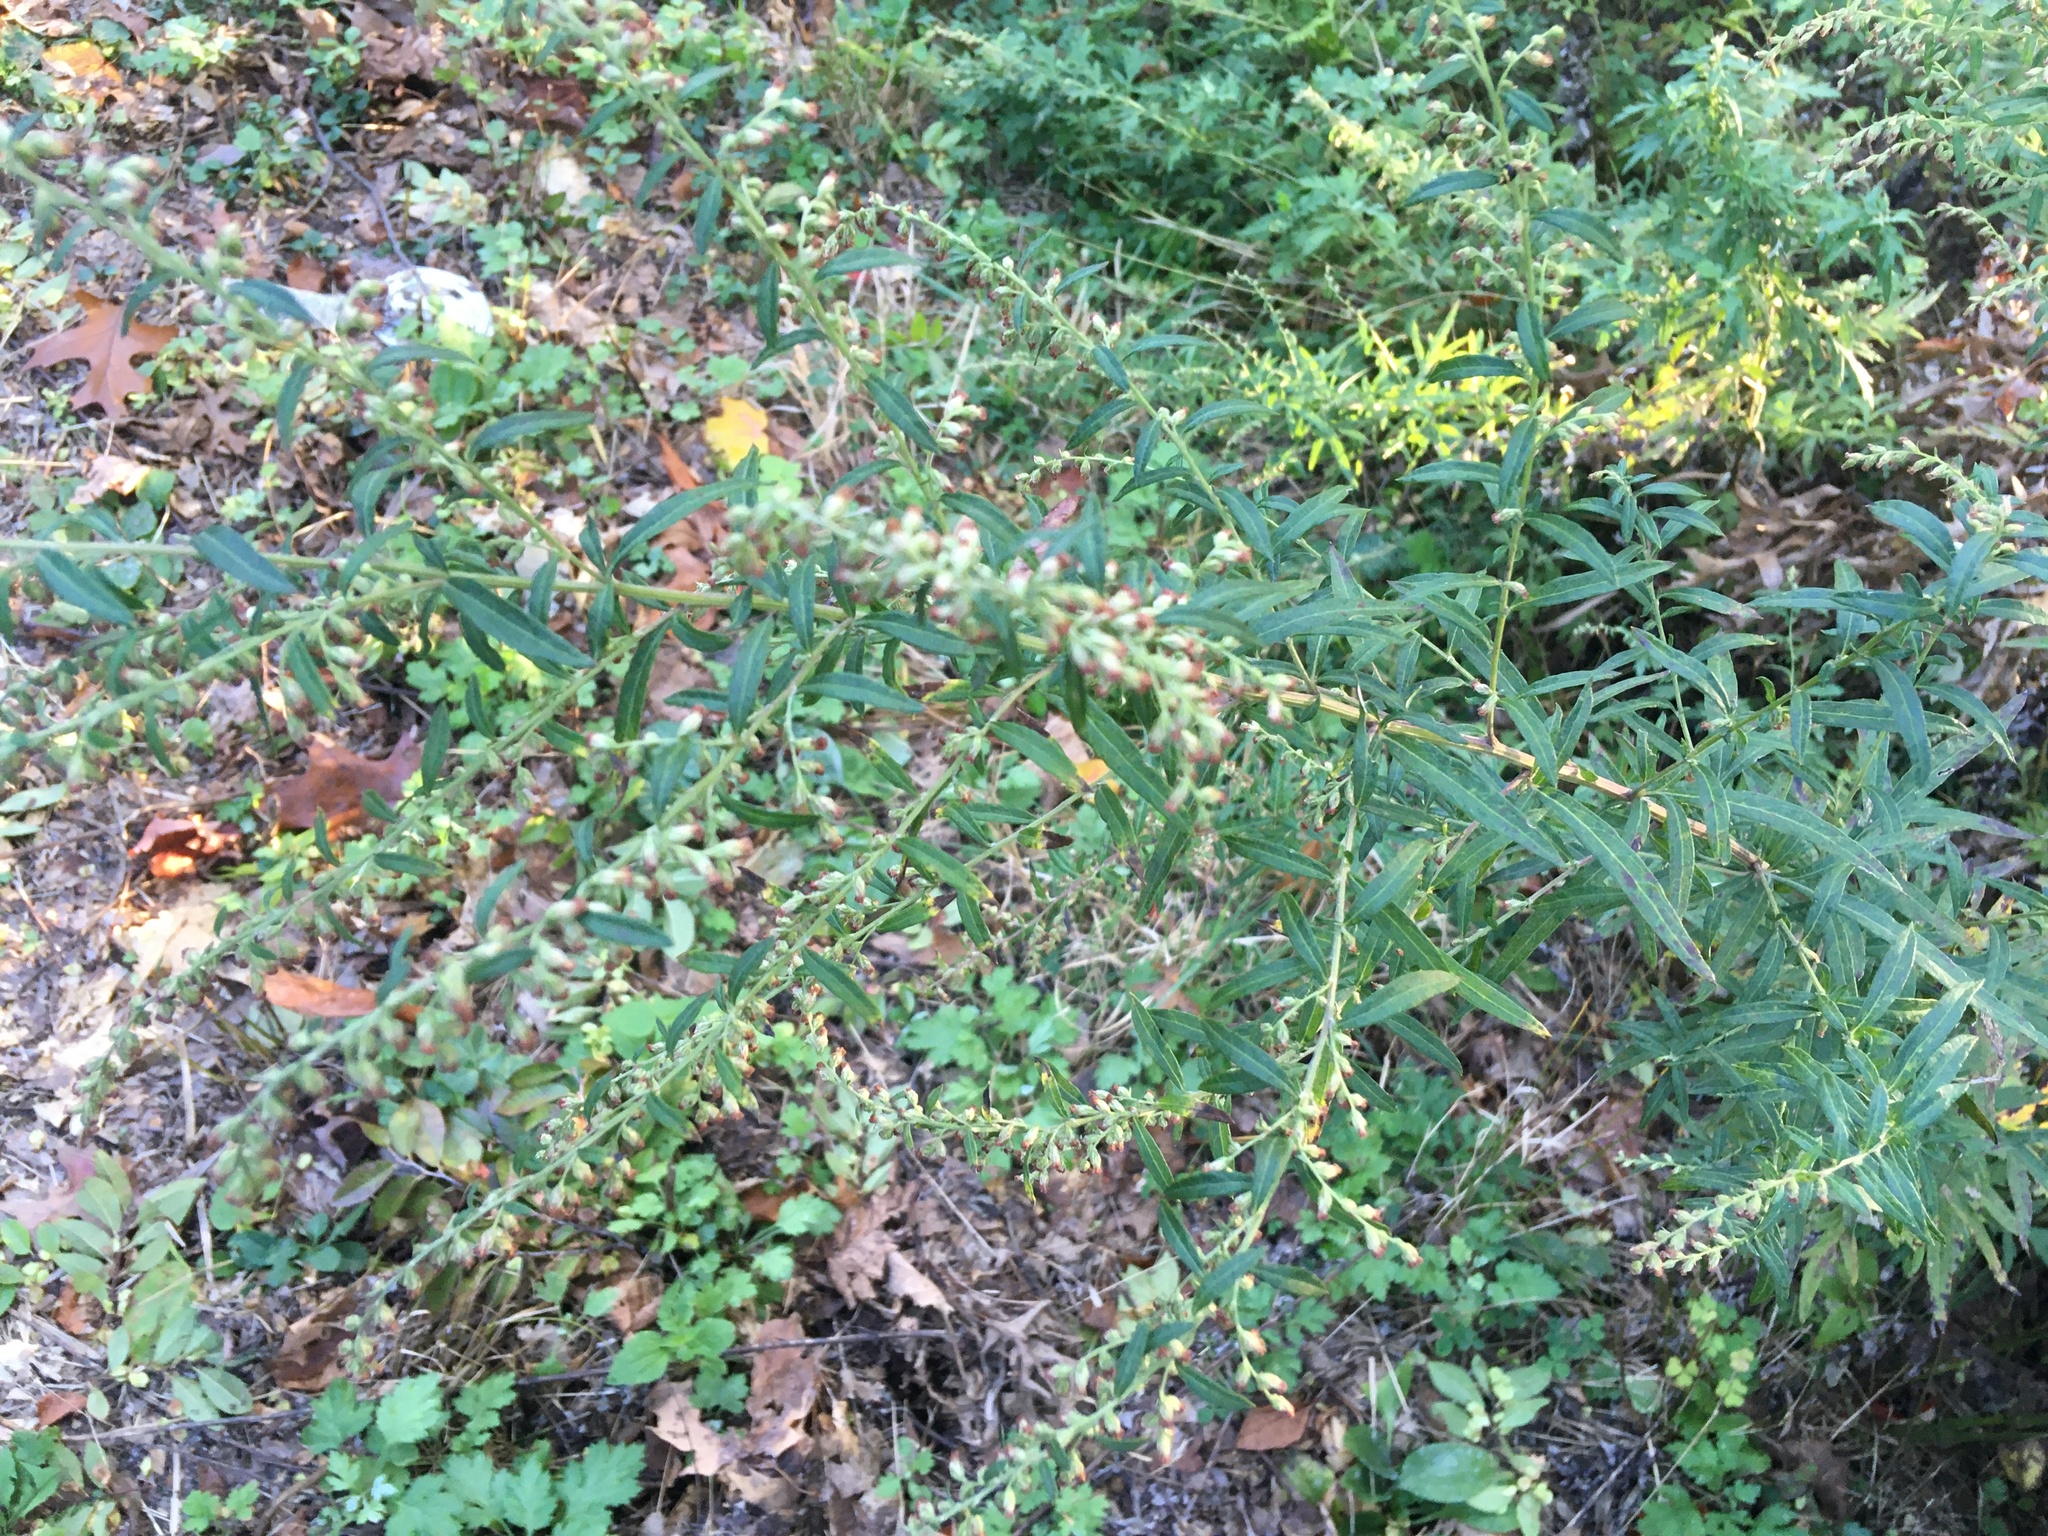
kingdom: Plantae
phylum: Tracheophyta
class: Magnoliopsida
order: Asterales
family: Asteraceae
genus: Artemisia
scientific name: Artemisia vulgaris
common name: Mugwort
